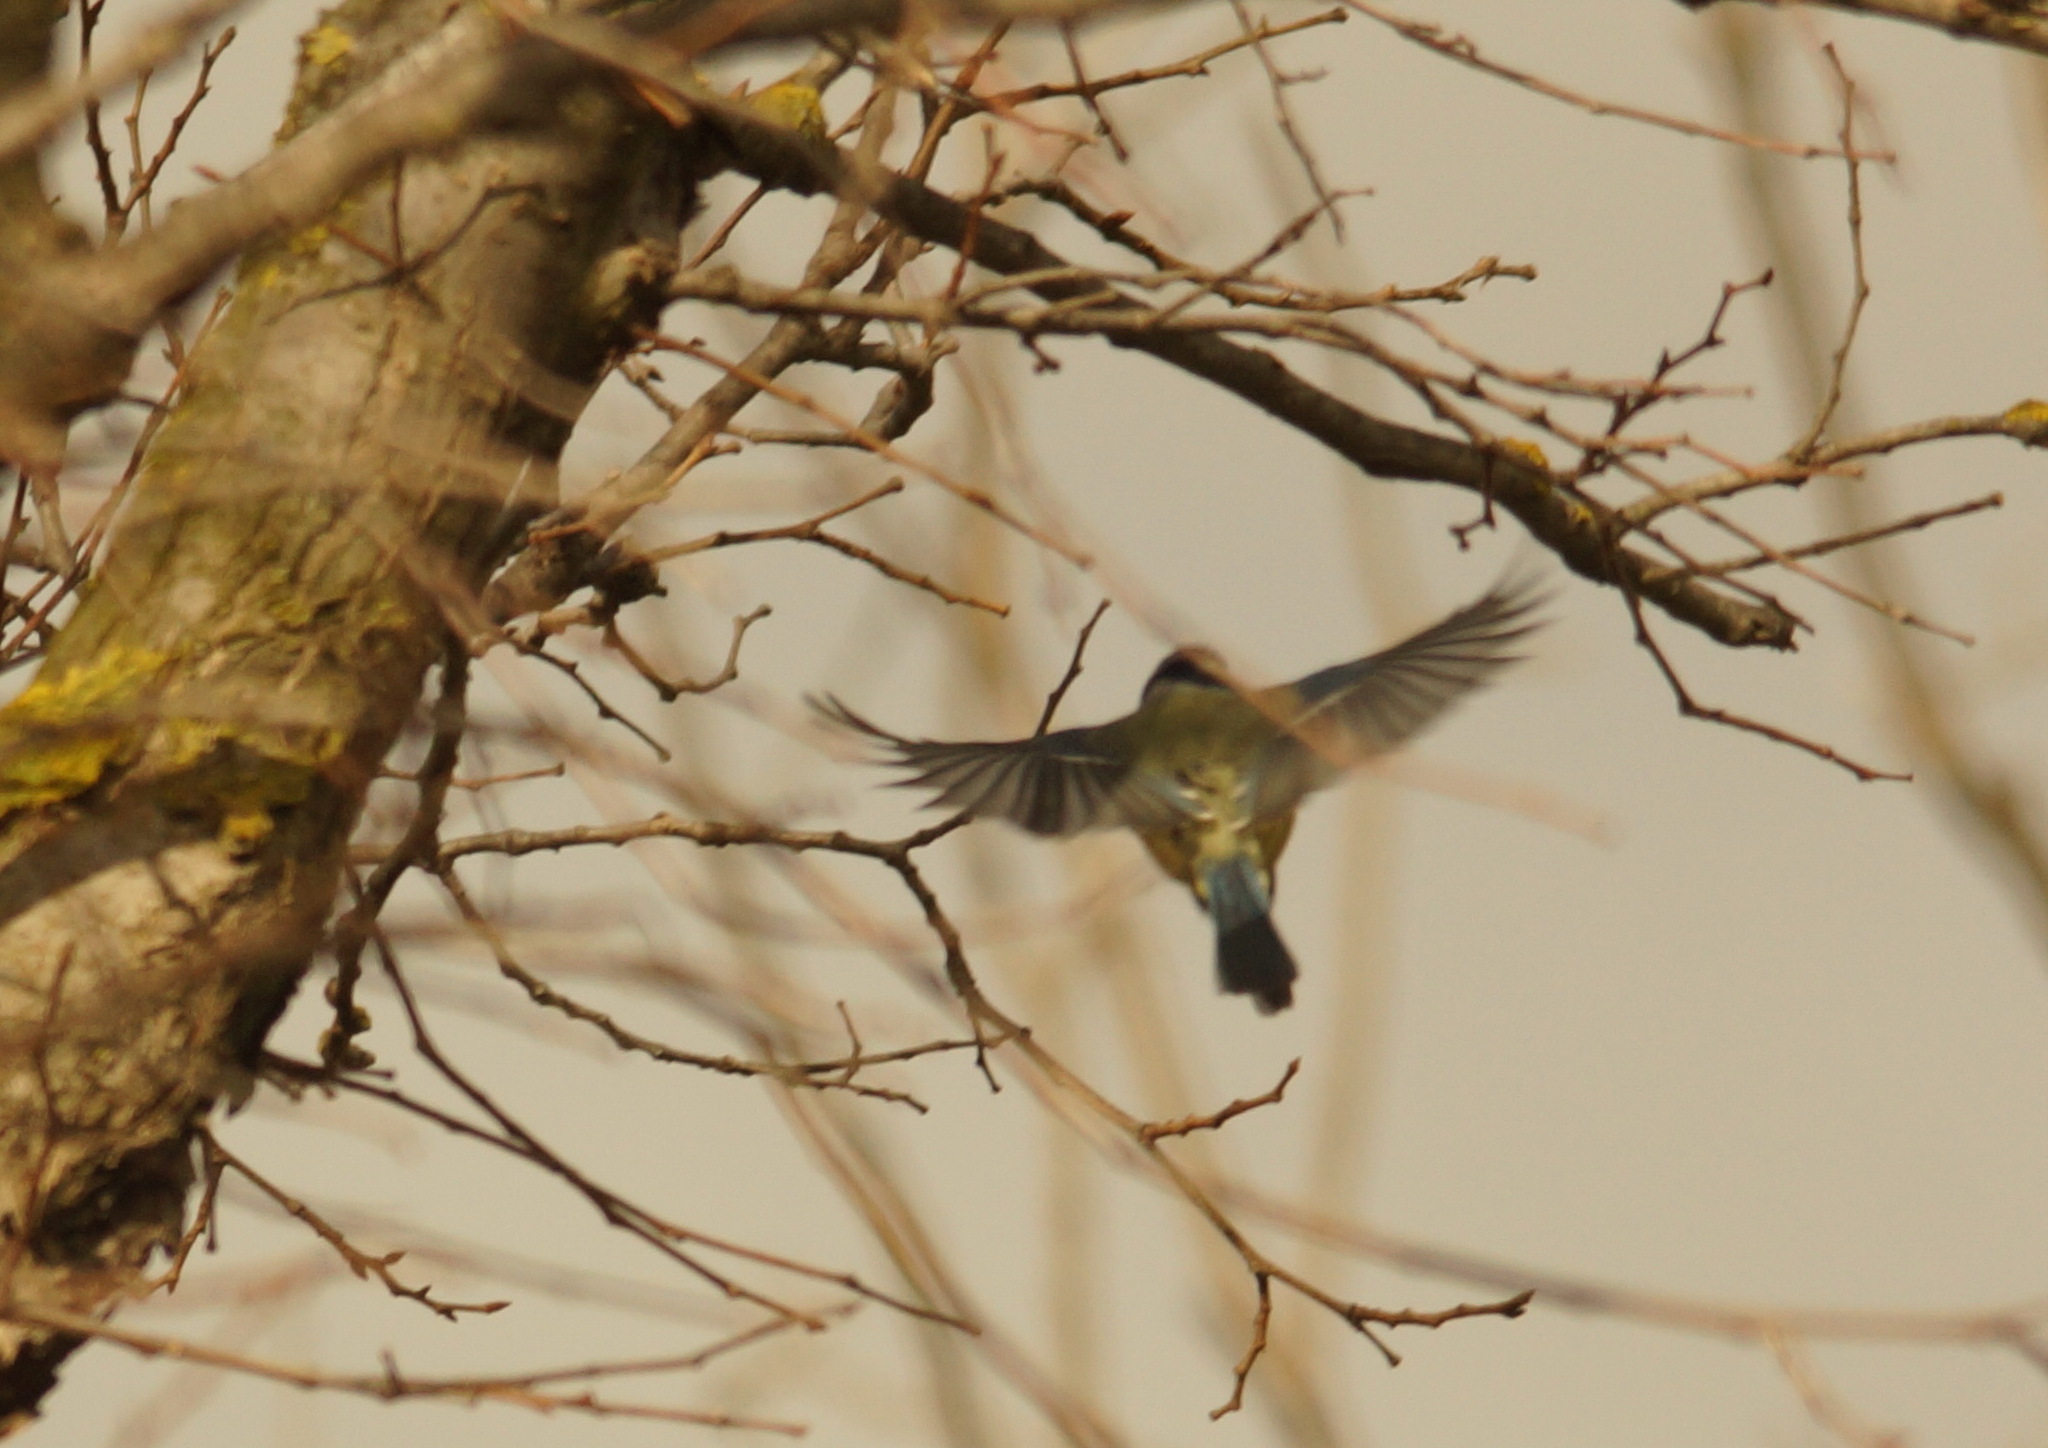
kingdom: Animalia
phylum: Chordata
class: Aves
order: Passeriformes
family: Paridae
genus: Cyanistes
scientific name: Cyanistes caeruleus
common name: Eurasian blue tit
